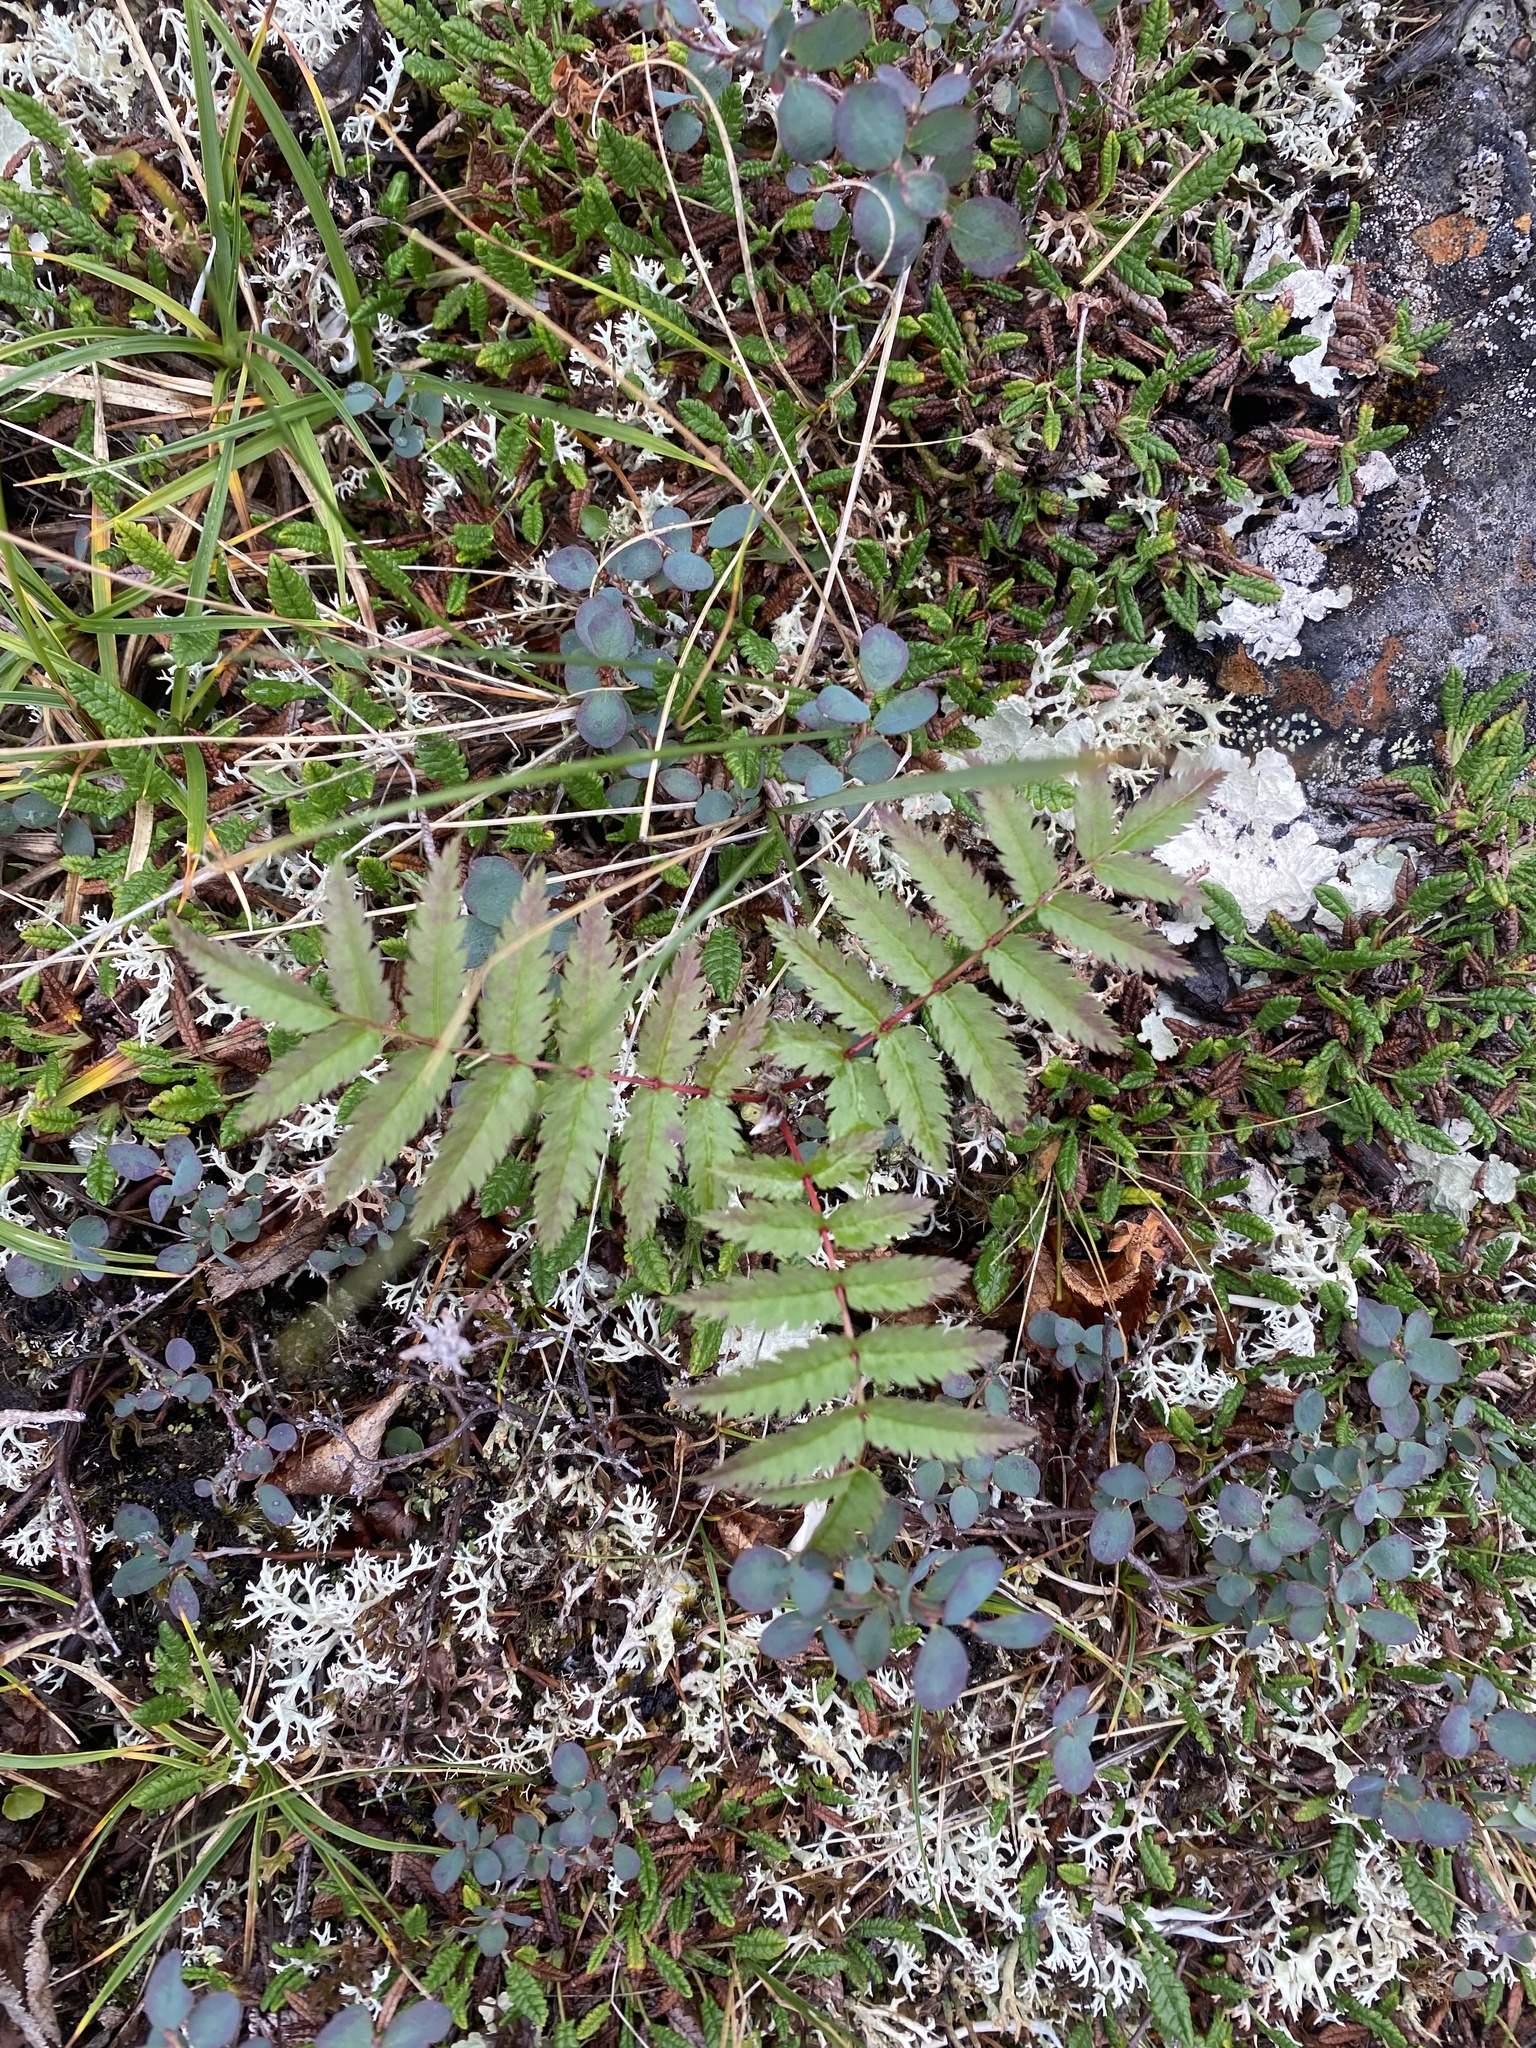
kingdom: Plantae
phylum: Tracheophyta
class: Magnoliopsida
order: Rosales
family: Rosaceae
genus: Dryas
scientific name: Dryas octopetala
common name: Eight-petal mountain-avens
